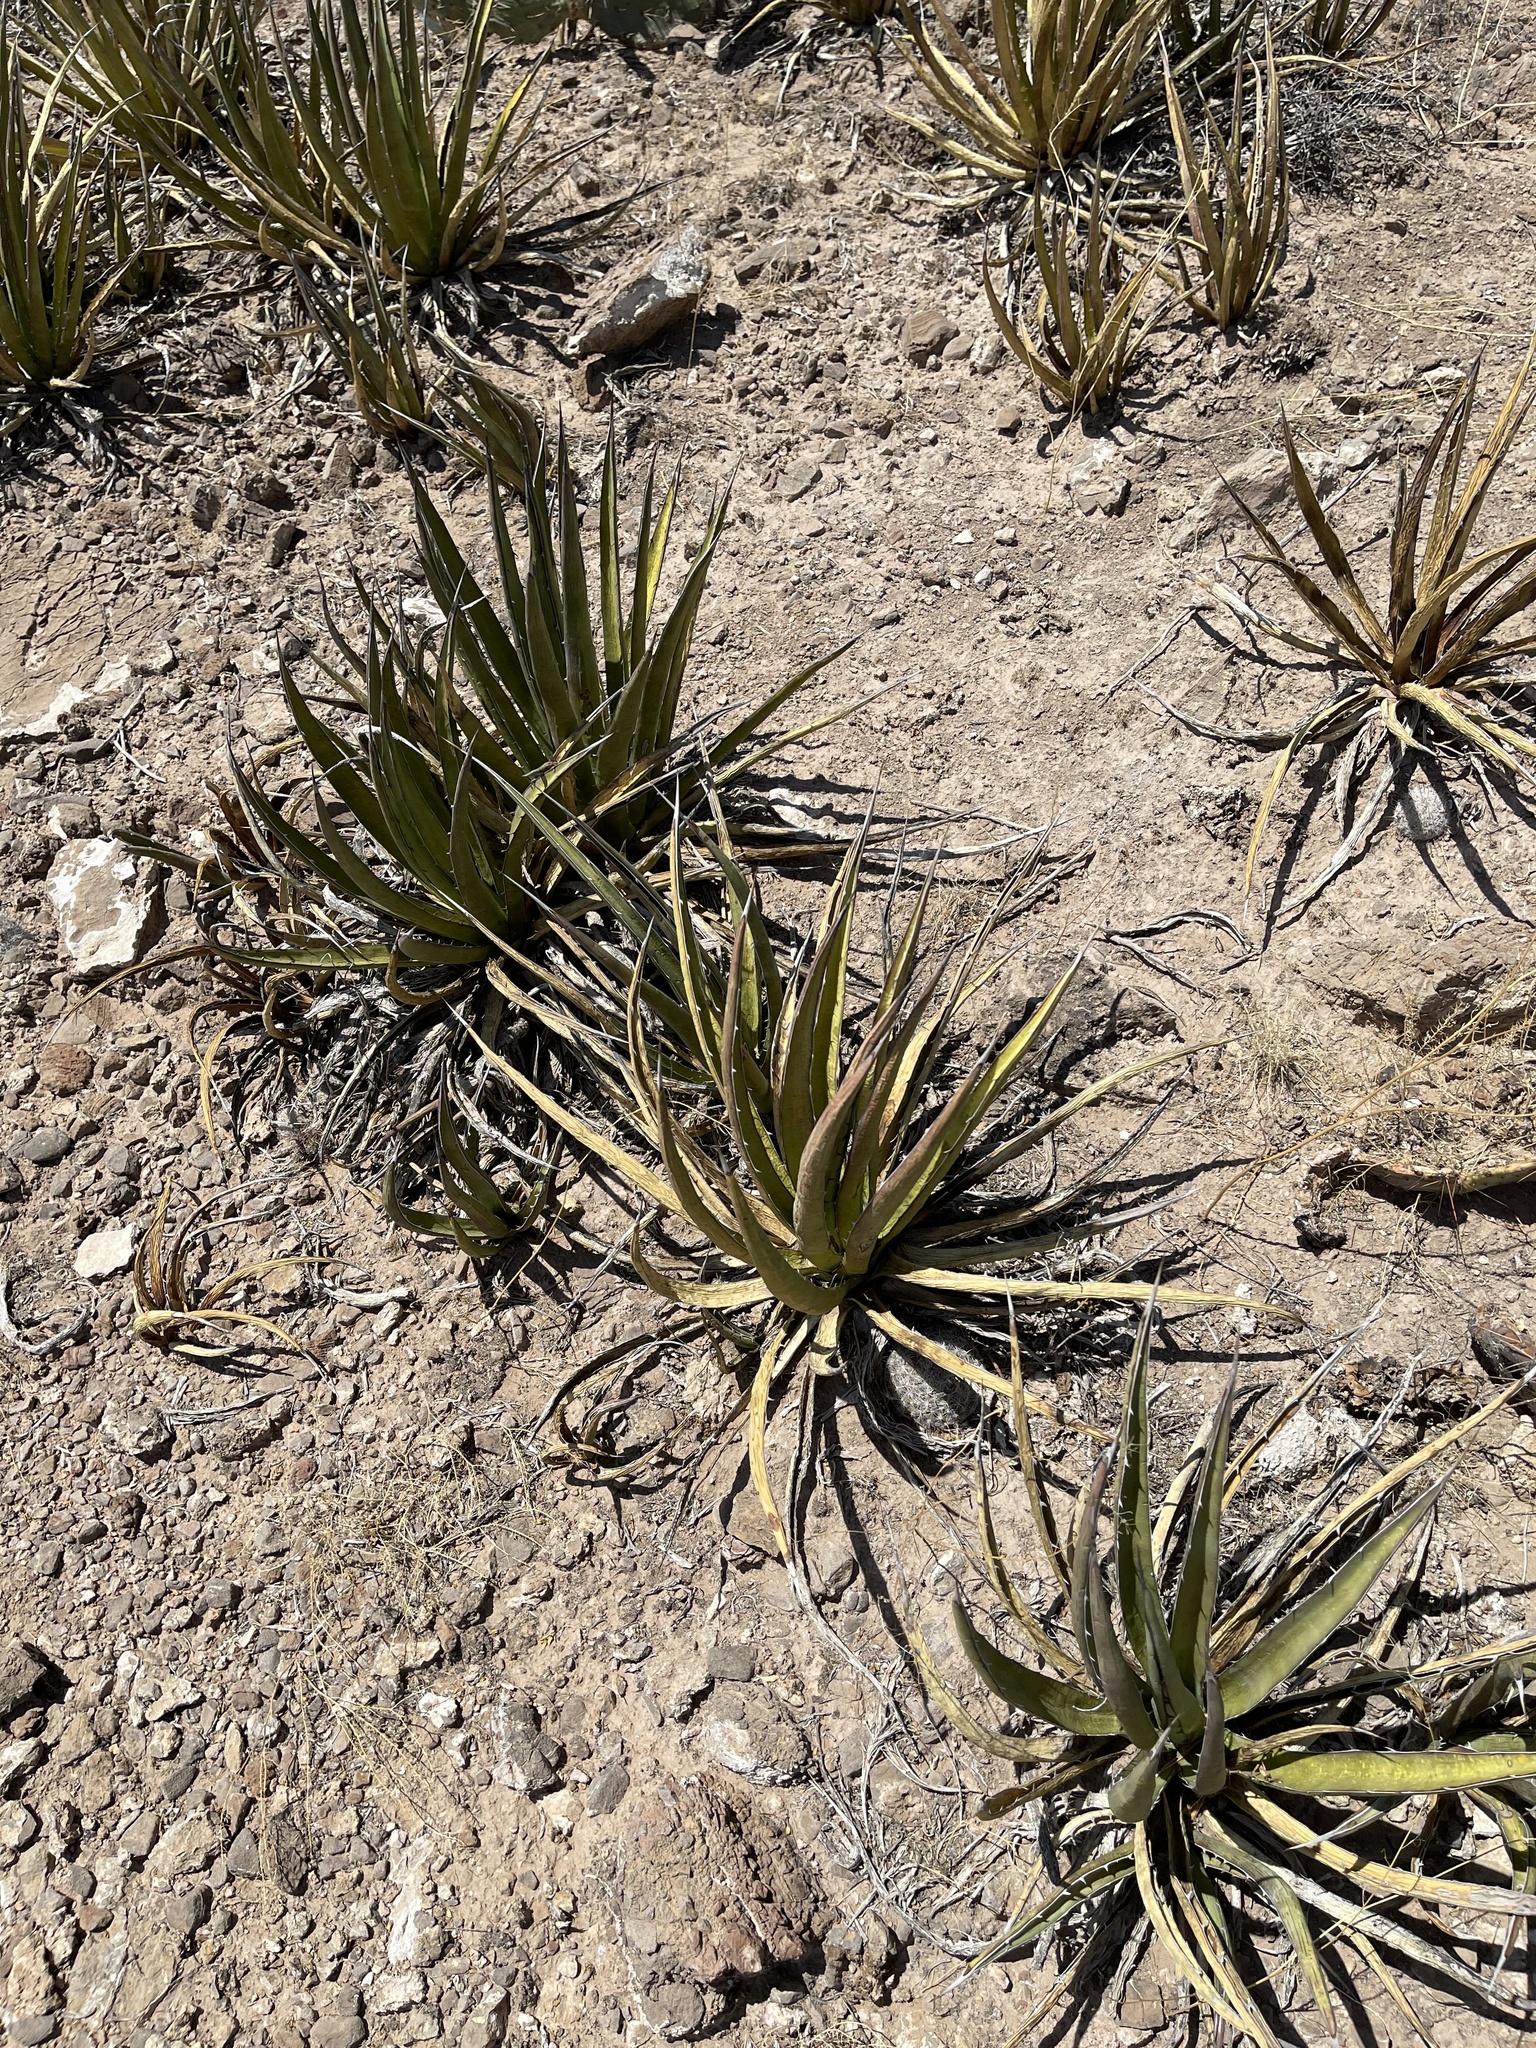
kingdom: Plantae
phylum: Tracheophyta
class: Liliopsida
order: Asparagales
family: Asparagaceae
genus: Agave
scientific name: Agave lechuguilla
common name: Lecheguilla agave
